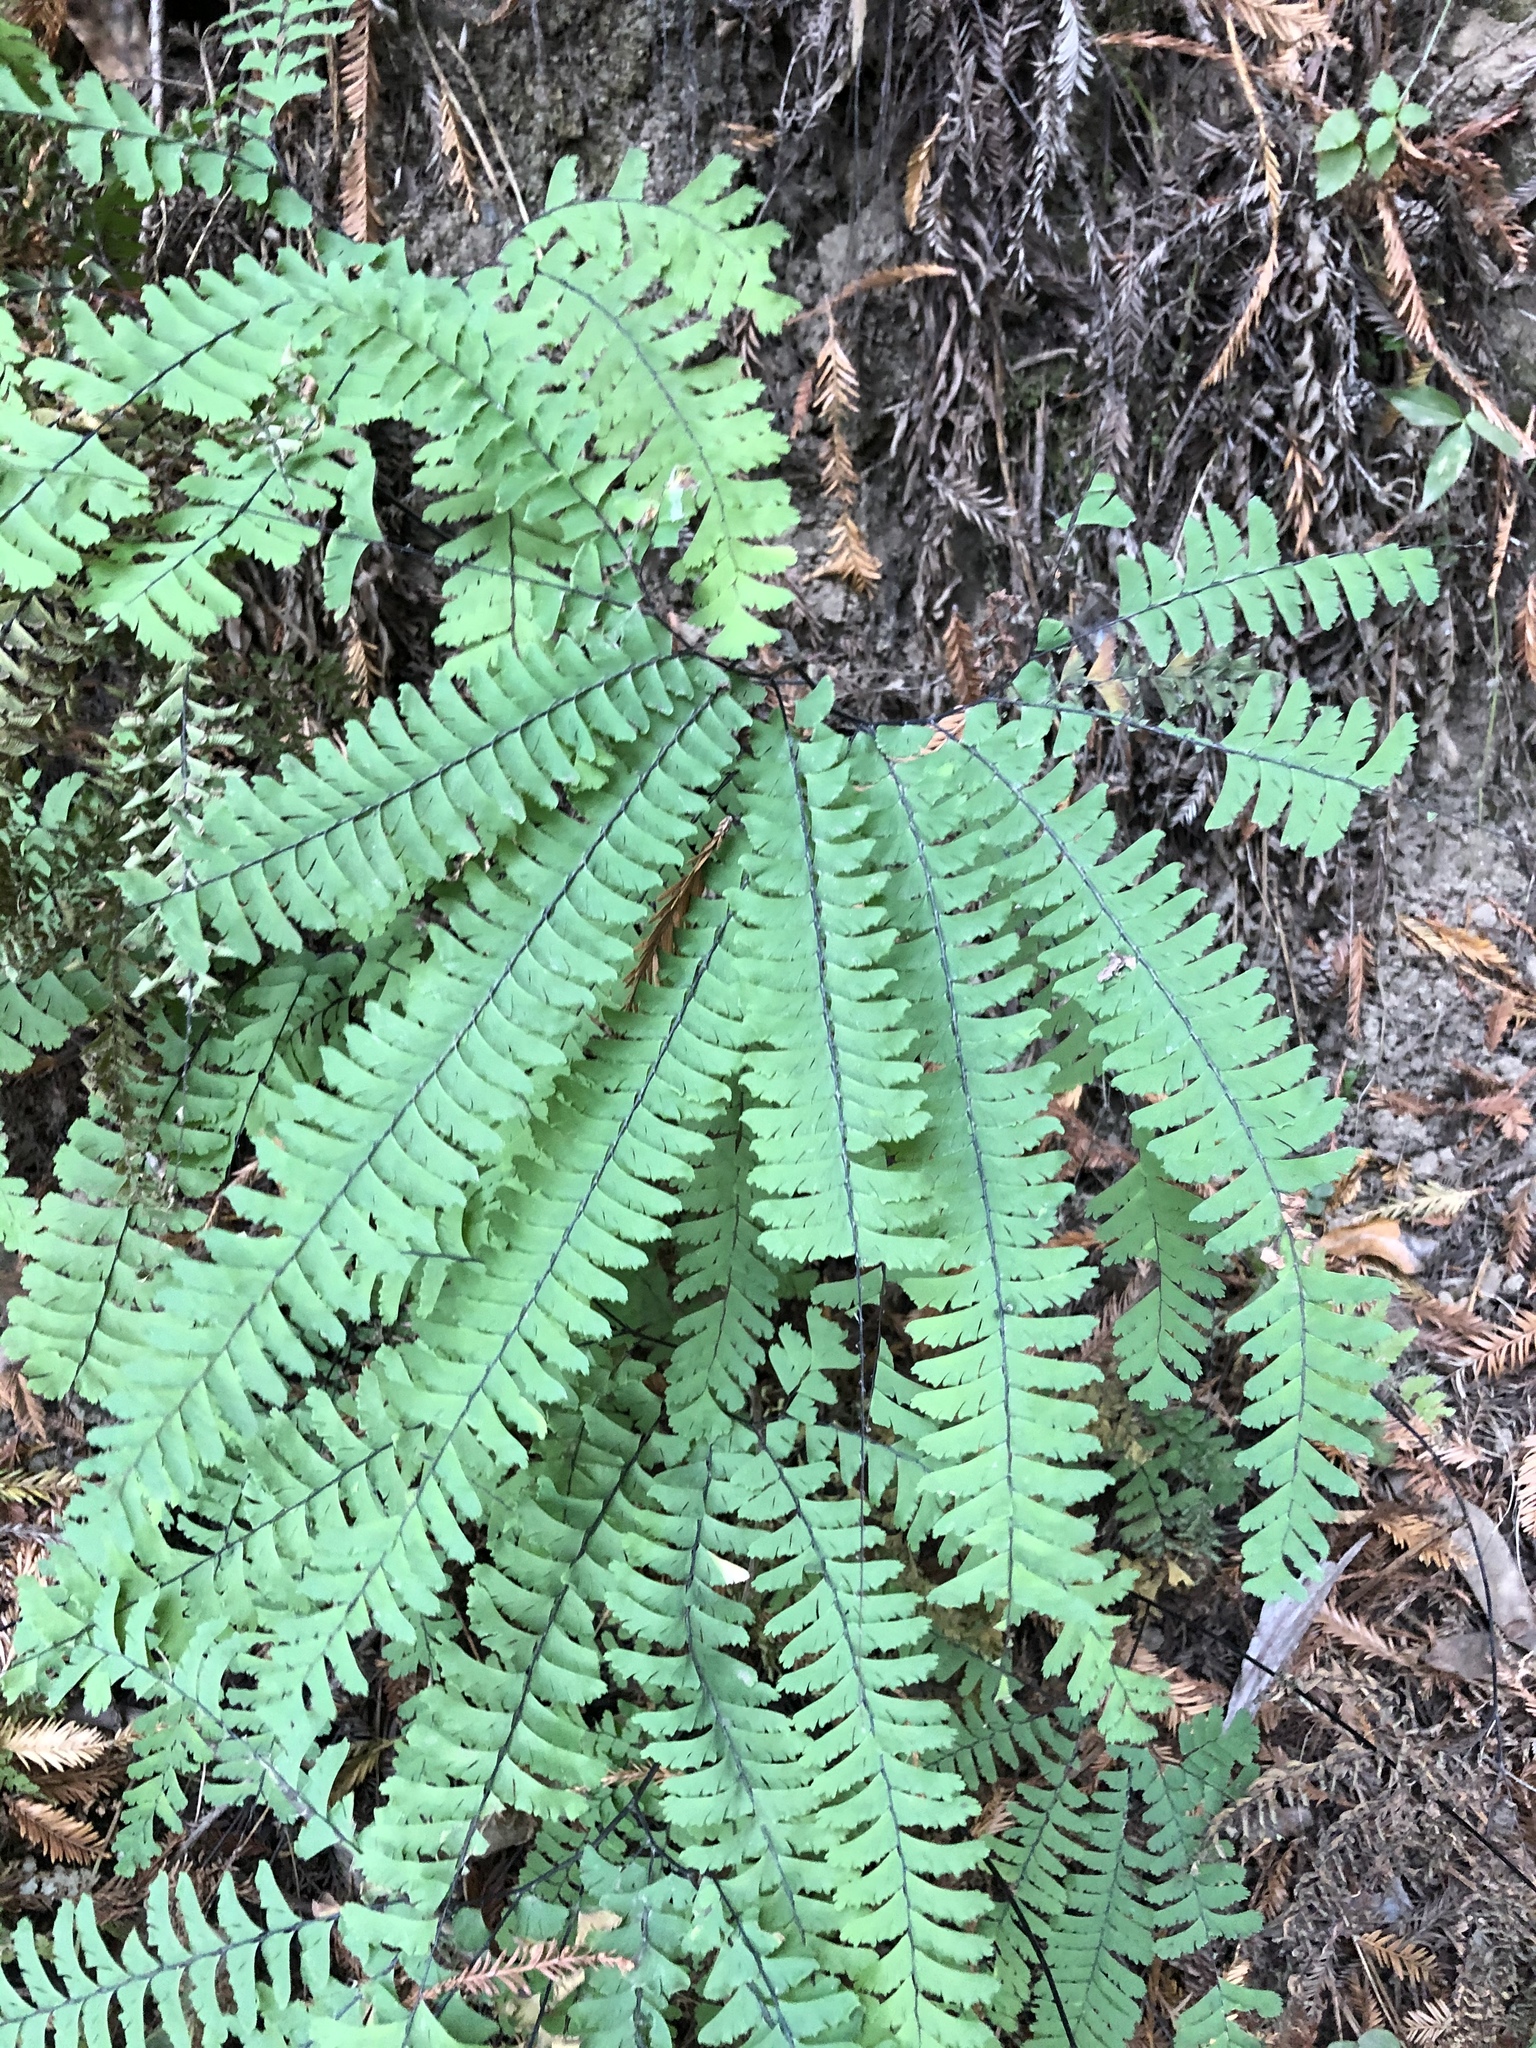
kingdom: Plantae
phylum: Tracheophyta
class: Polypodiopsida
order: Polypodiales
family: Pteridaceae
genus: Adiantum
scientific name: Adiantum aleuticum
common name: Aleutian maidenhair fern
